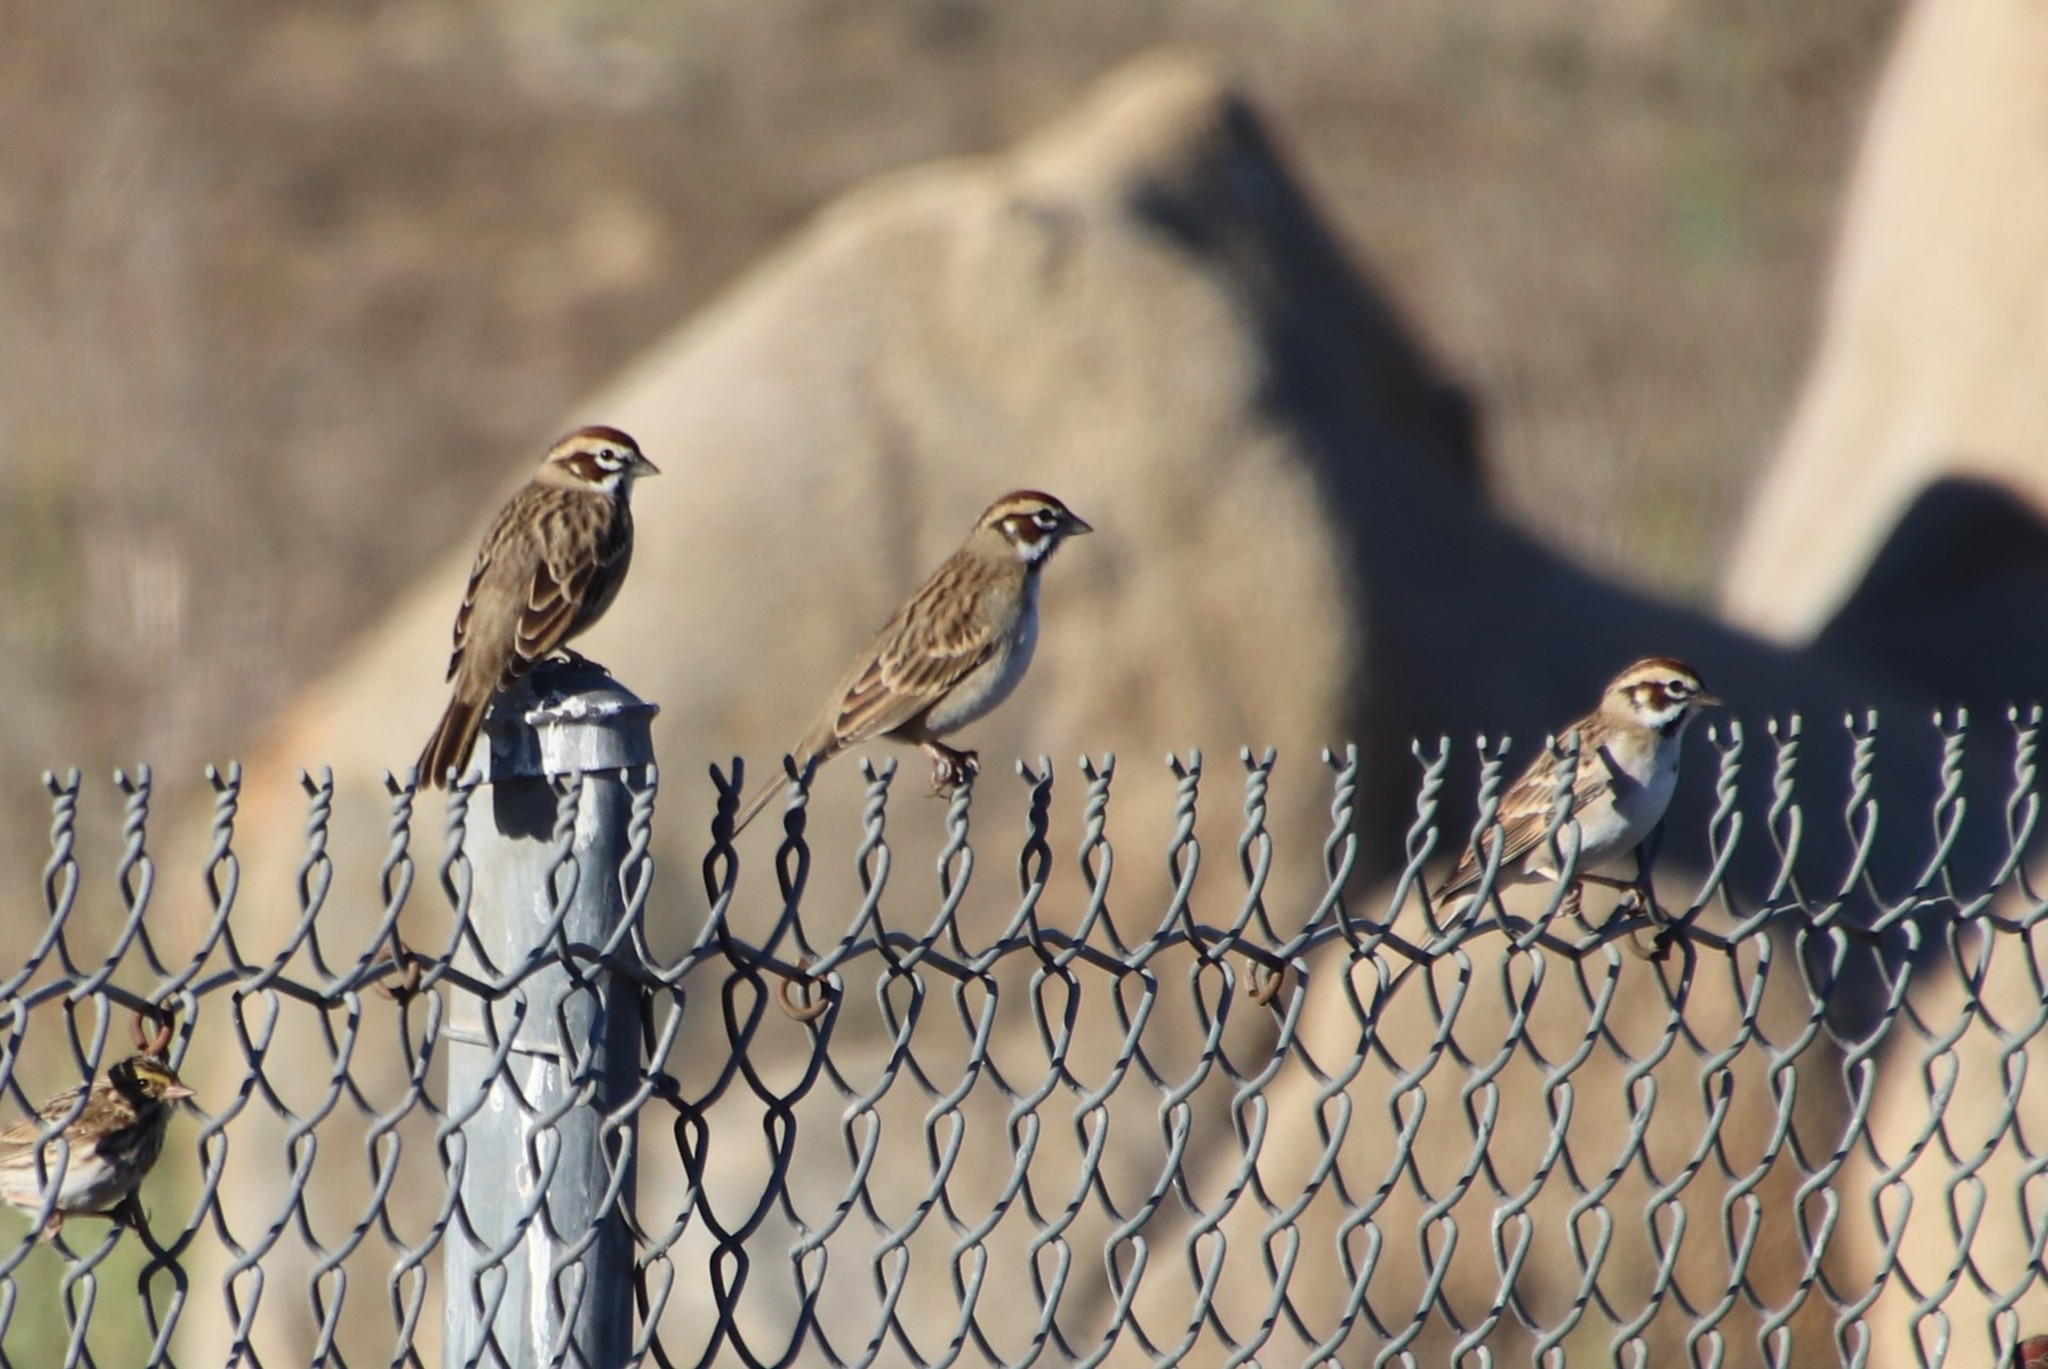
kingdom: Animalia
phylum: Chordata
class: Aves
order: Passeriformes
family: Passerellidae
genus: Chondestes
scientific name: Chondestes grammacus
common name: Lark sparrow
